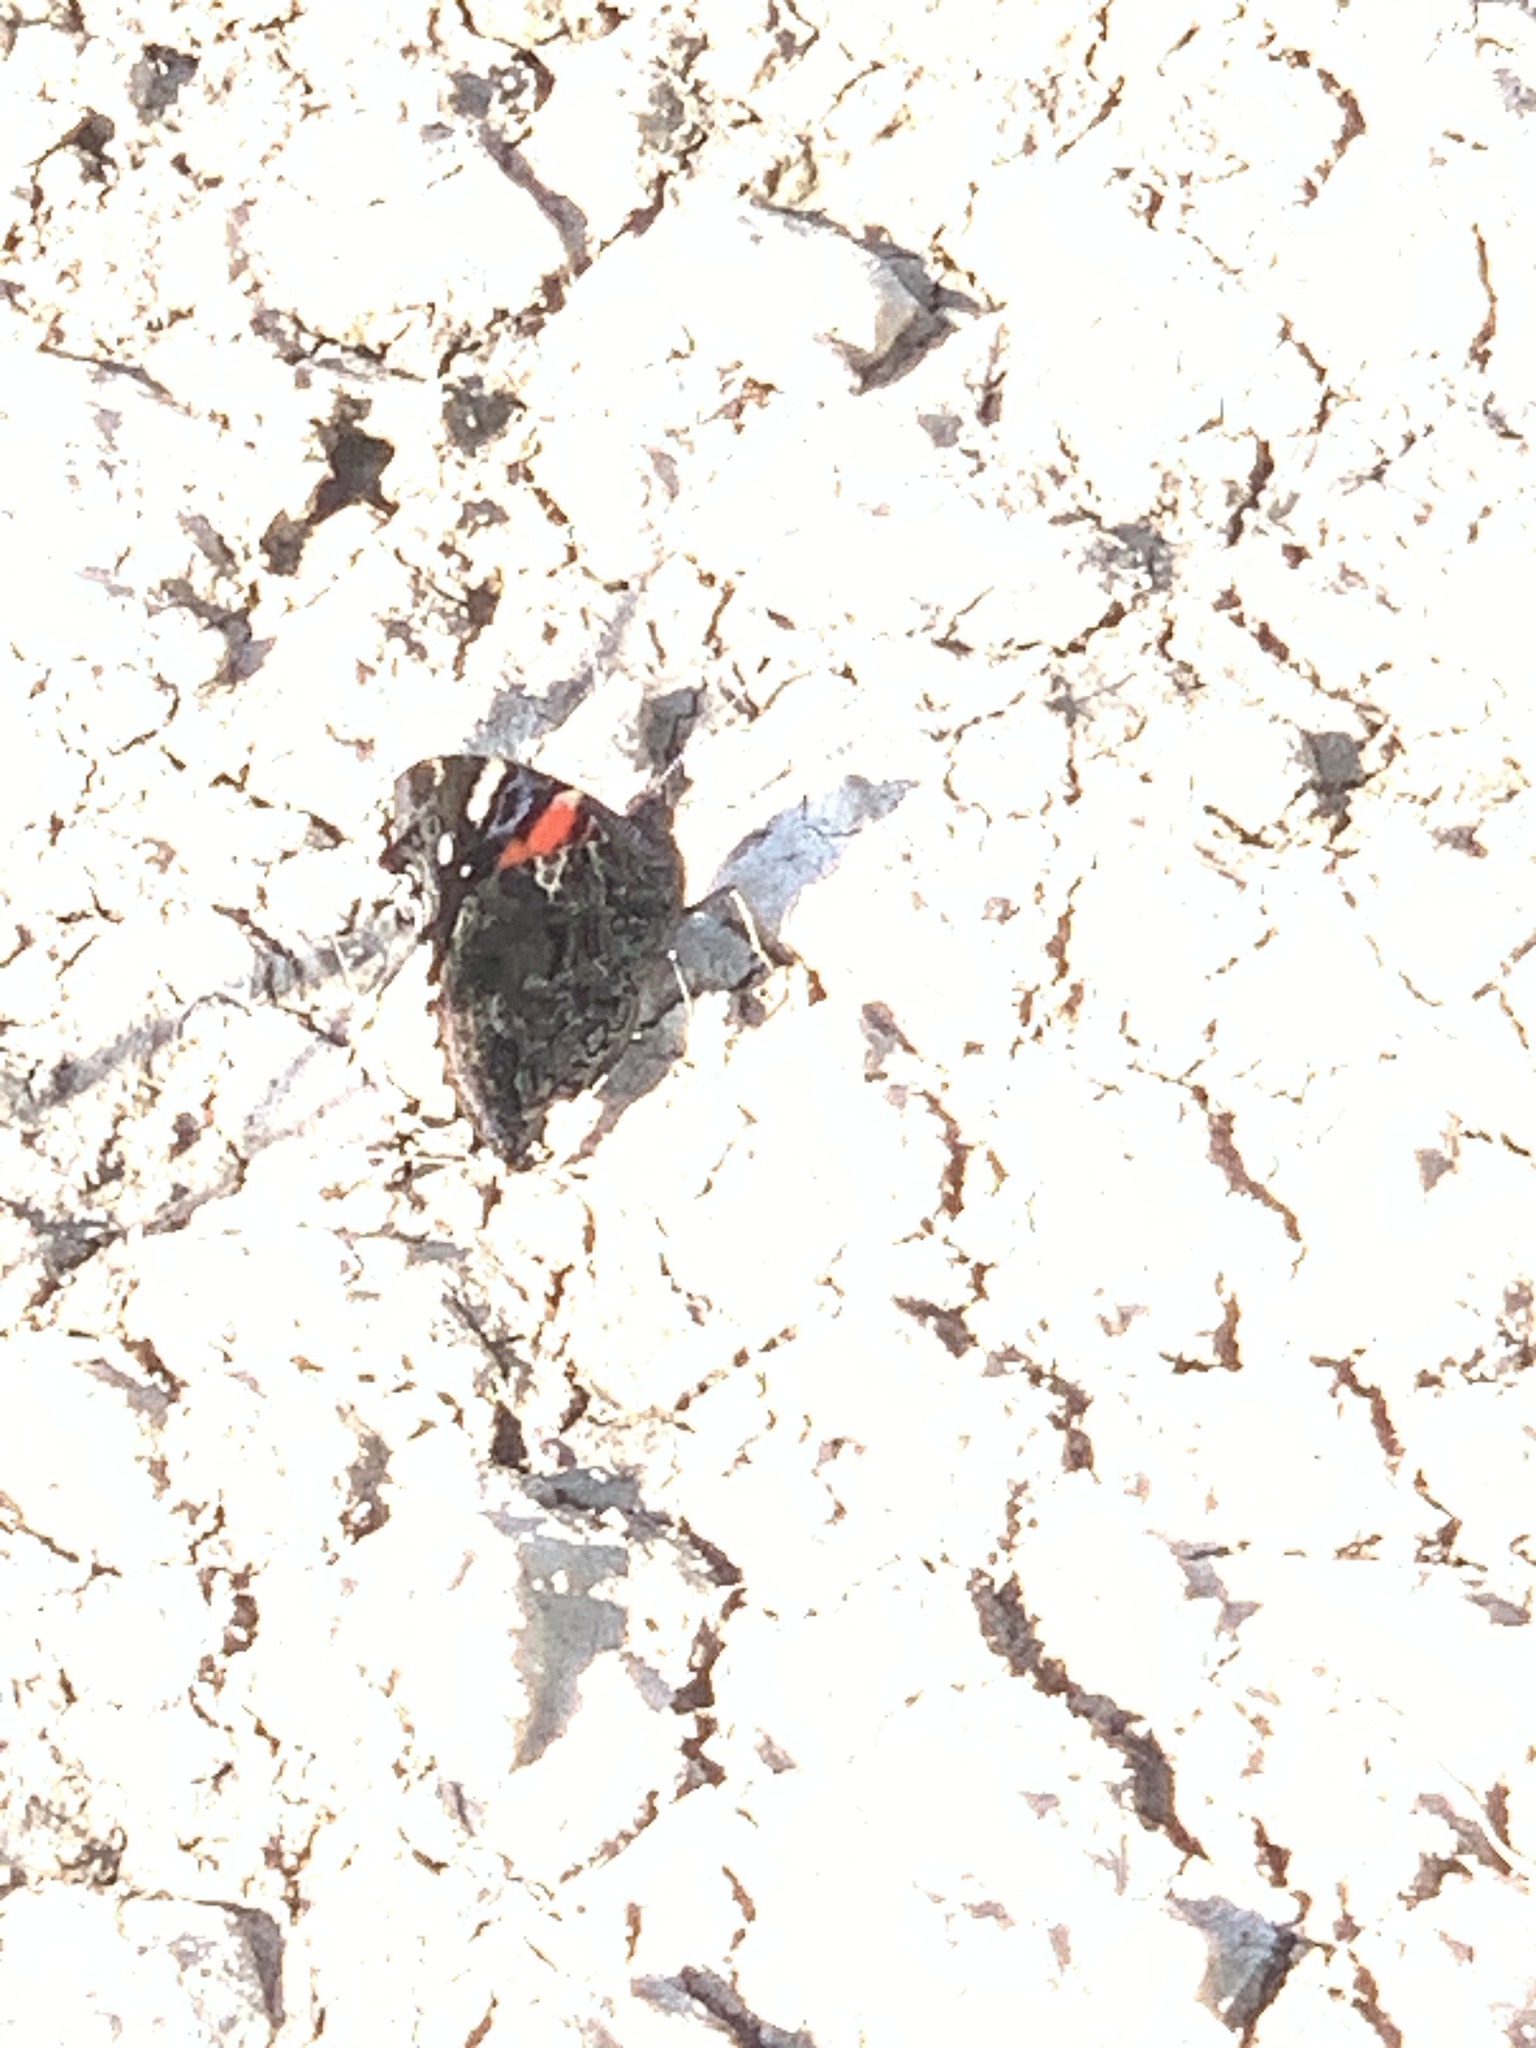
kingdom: Animalia
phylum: Arthropoda
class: Insecta
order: Lepidoptera
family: Nymphalidae
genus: Vanessa
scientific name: Vanessa atalanta
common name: Red admiral
